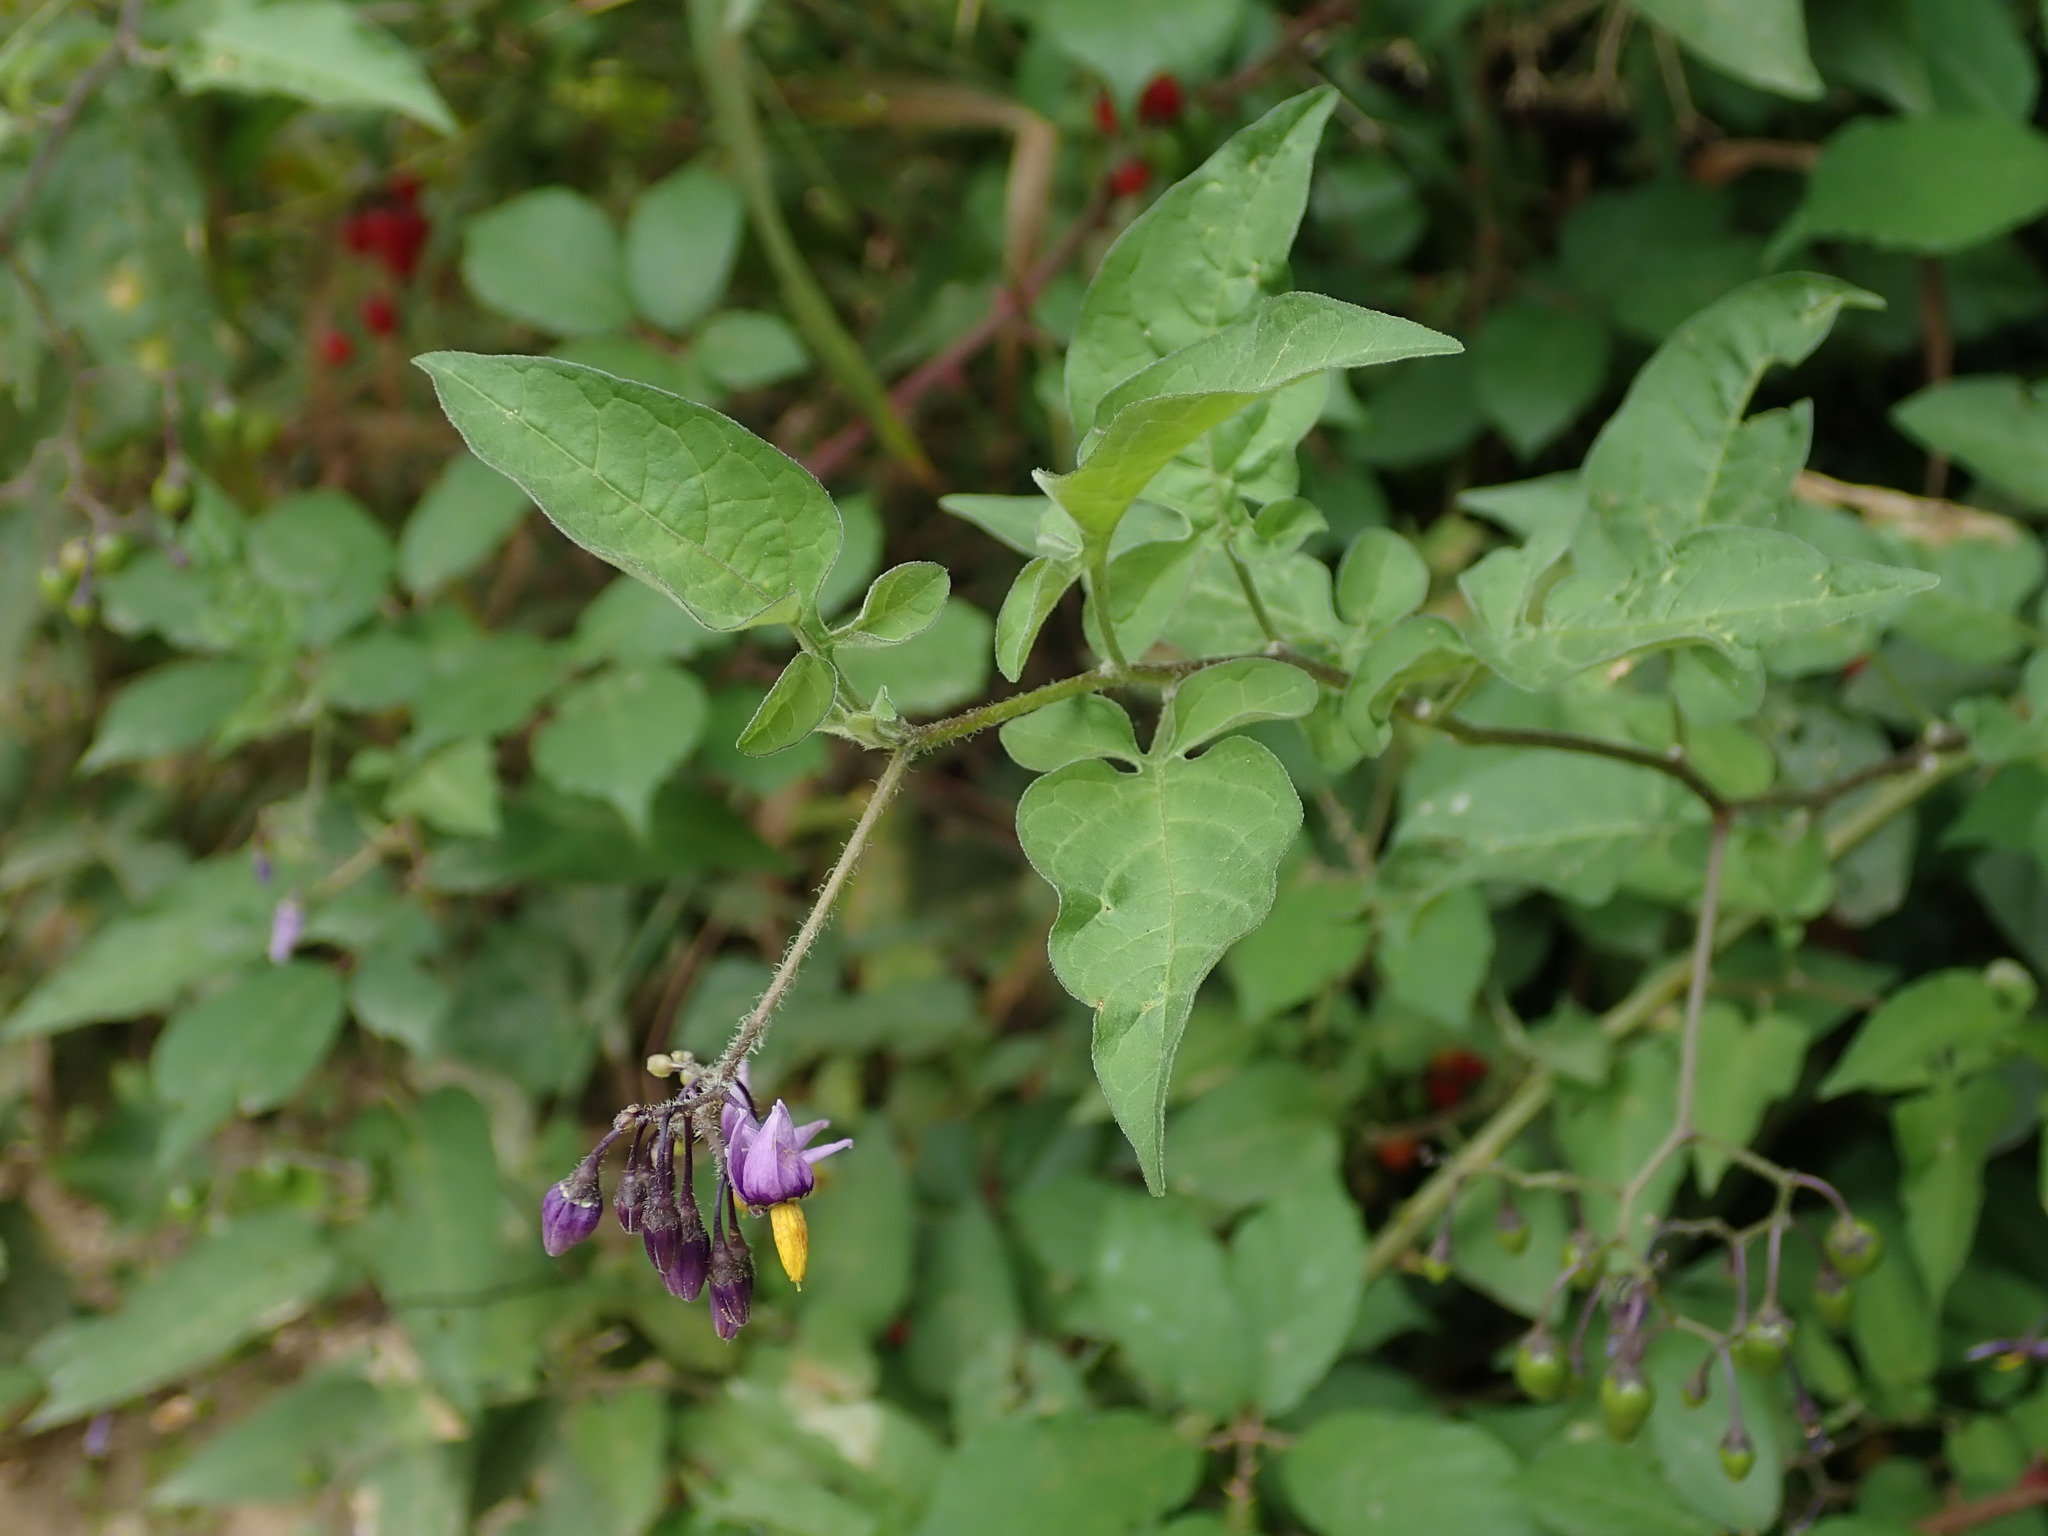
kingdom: Plantae
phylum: Tracheophyta
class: Magnoliopsida
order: Solanales
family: Solanaceae
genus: Solanum
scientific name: Solanum dulcamara
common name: Climbing nightshade
